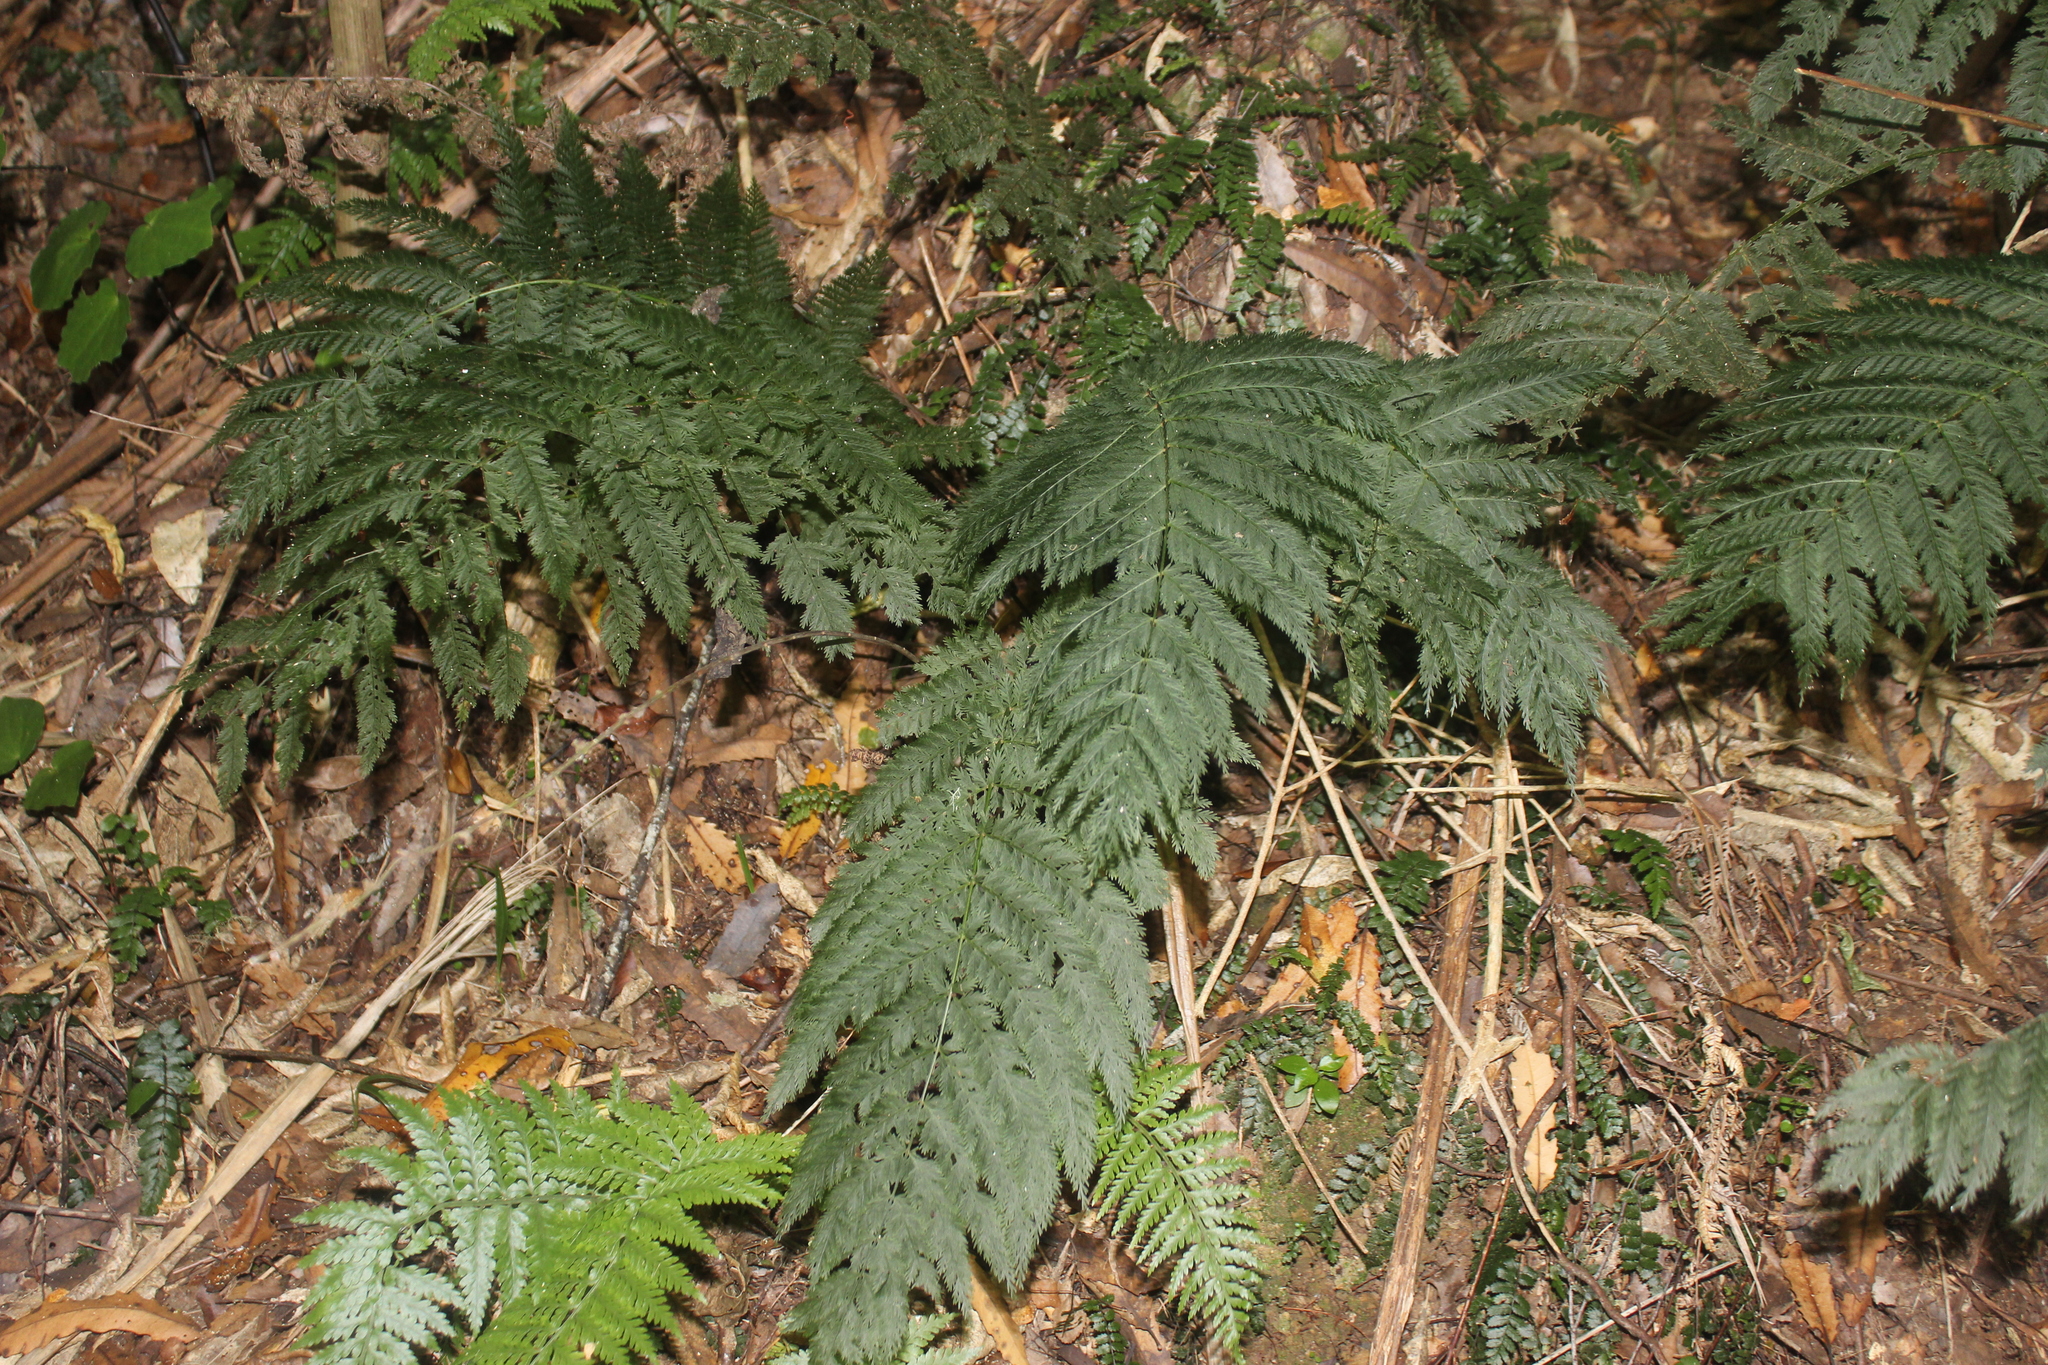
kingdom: Plantae
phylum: Tracheophyta
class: Polypodiopsida
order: Osmundales
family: Osmundaceae
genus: Leptopteris
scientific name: Leptopteris hymenophylloides
